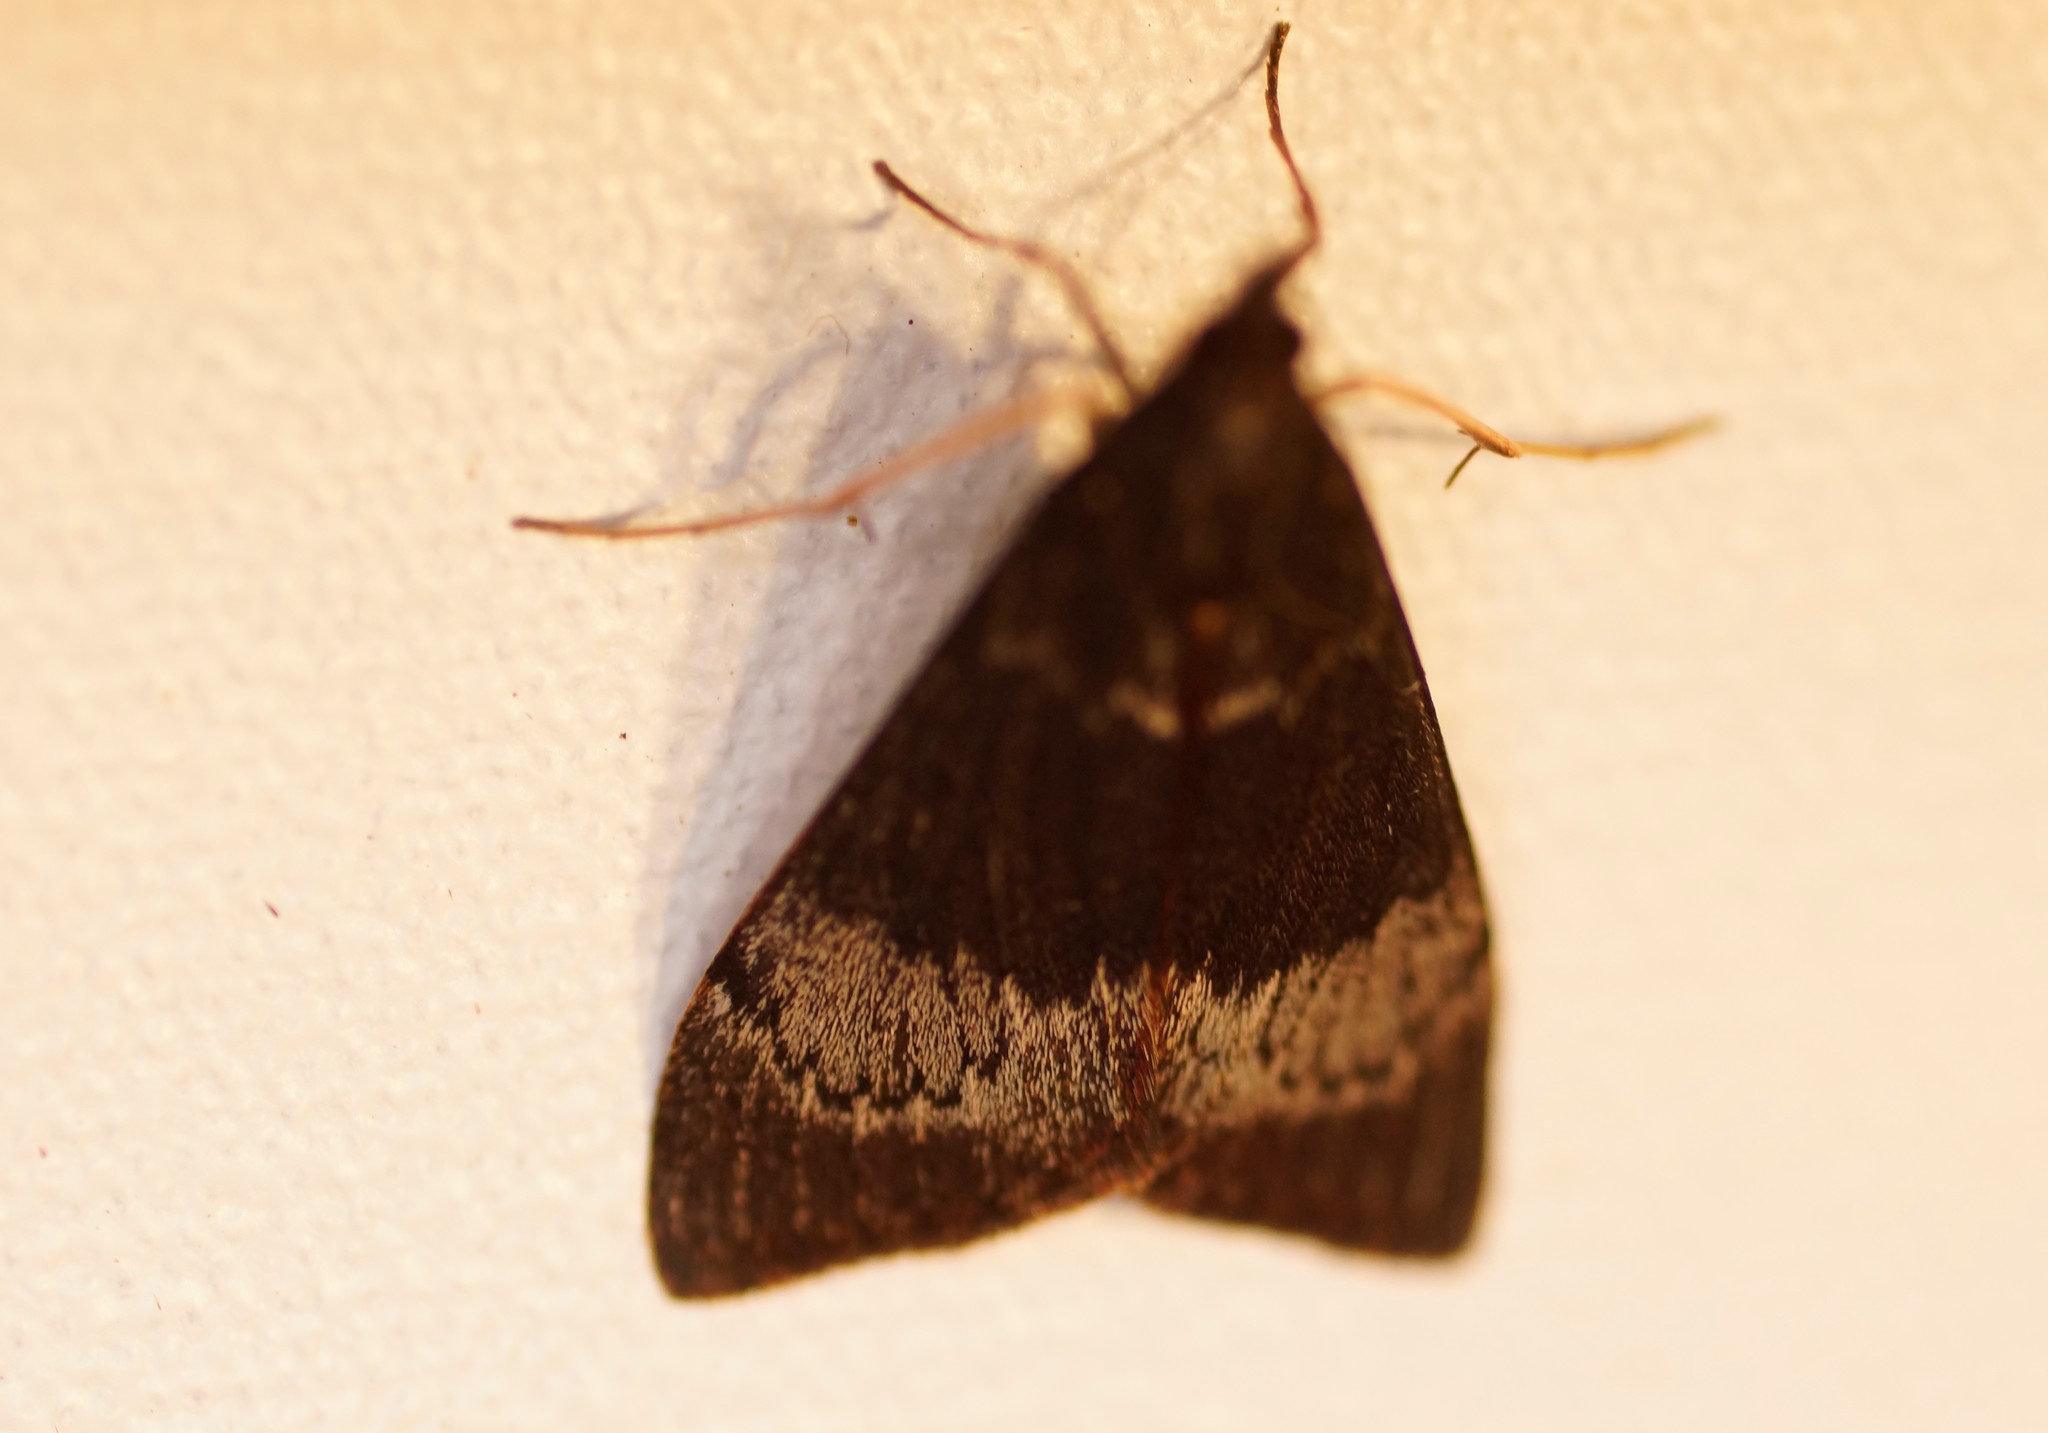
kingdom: Animalia
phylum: Arthropoda
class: Insecta
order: Lepidoptera
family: Crambidae
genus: Uresiphita
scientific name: Uresiphita ornithopteralis
